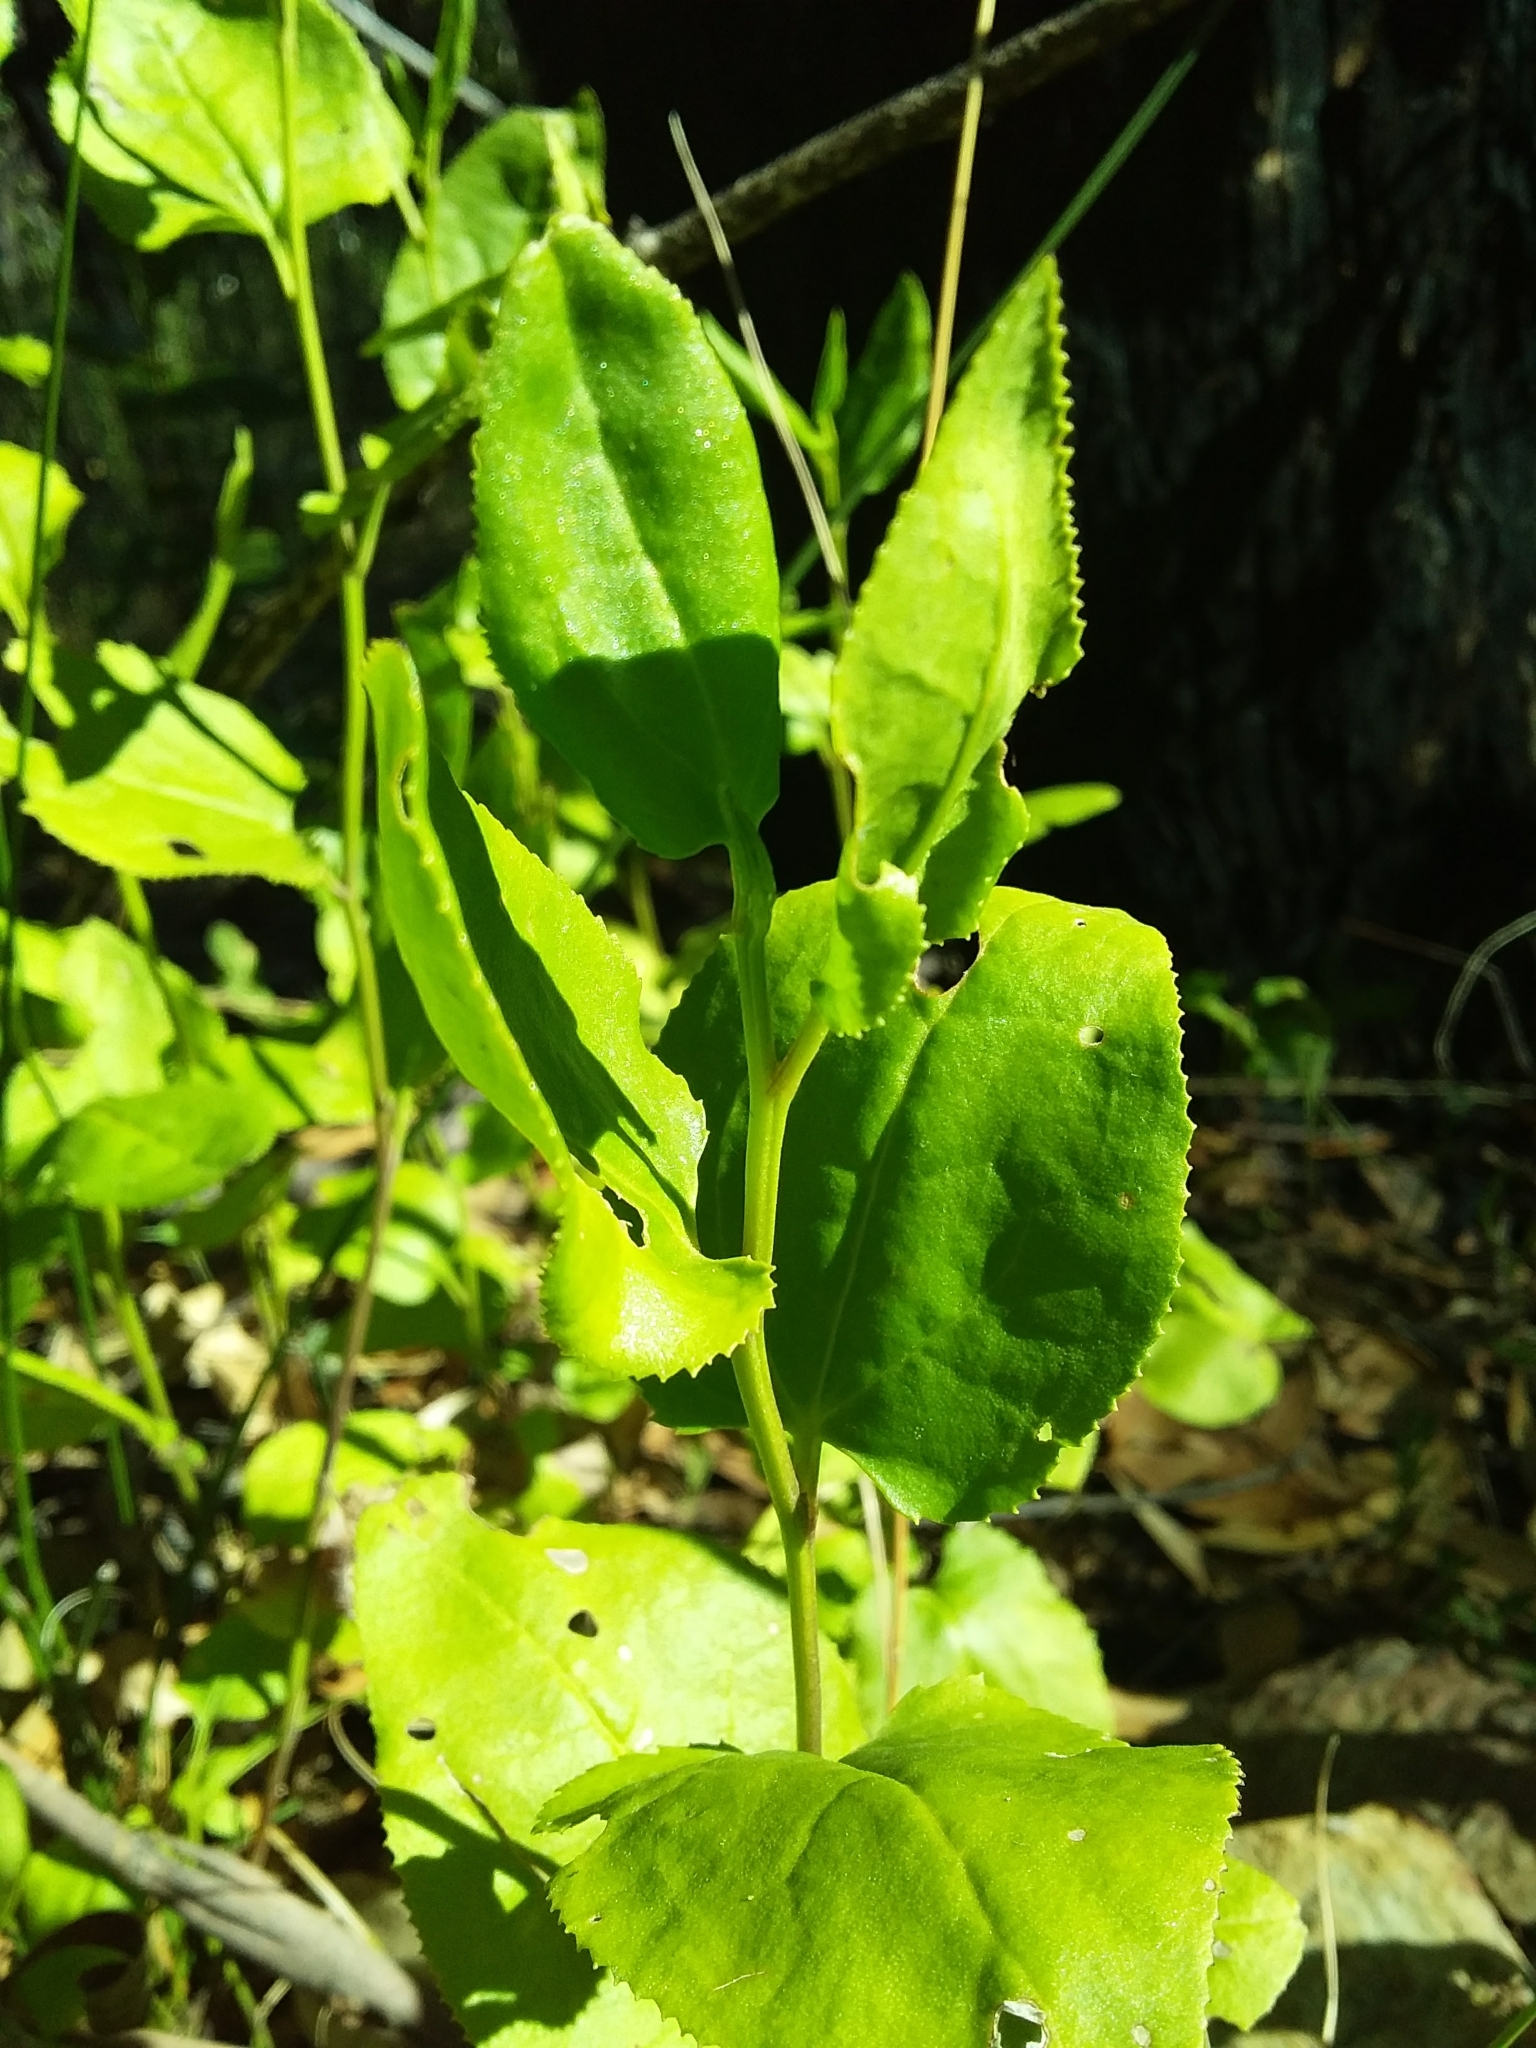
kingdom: Plantae
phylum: Tracheophyta
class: Magnoliopsida
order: Asterales
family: Goodeniaceae
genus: Goodenia
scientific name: Goodenia ovata
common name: Hop goodenia
